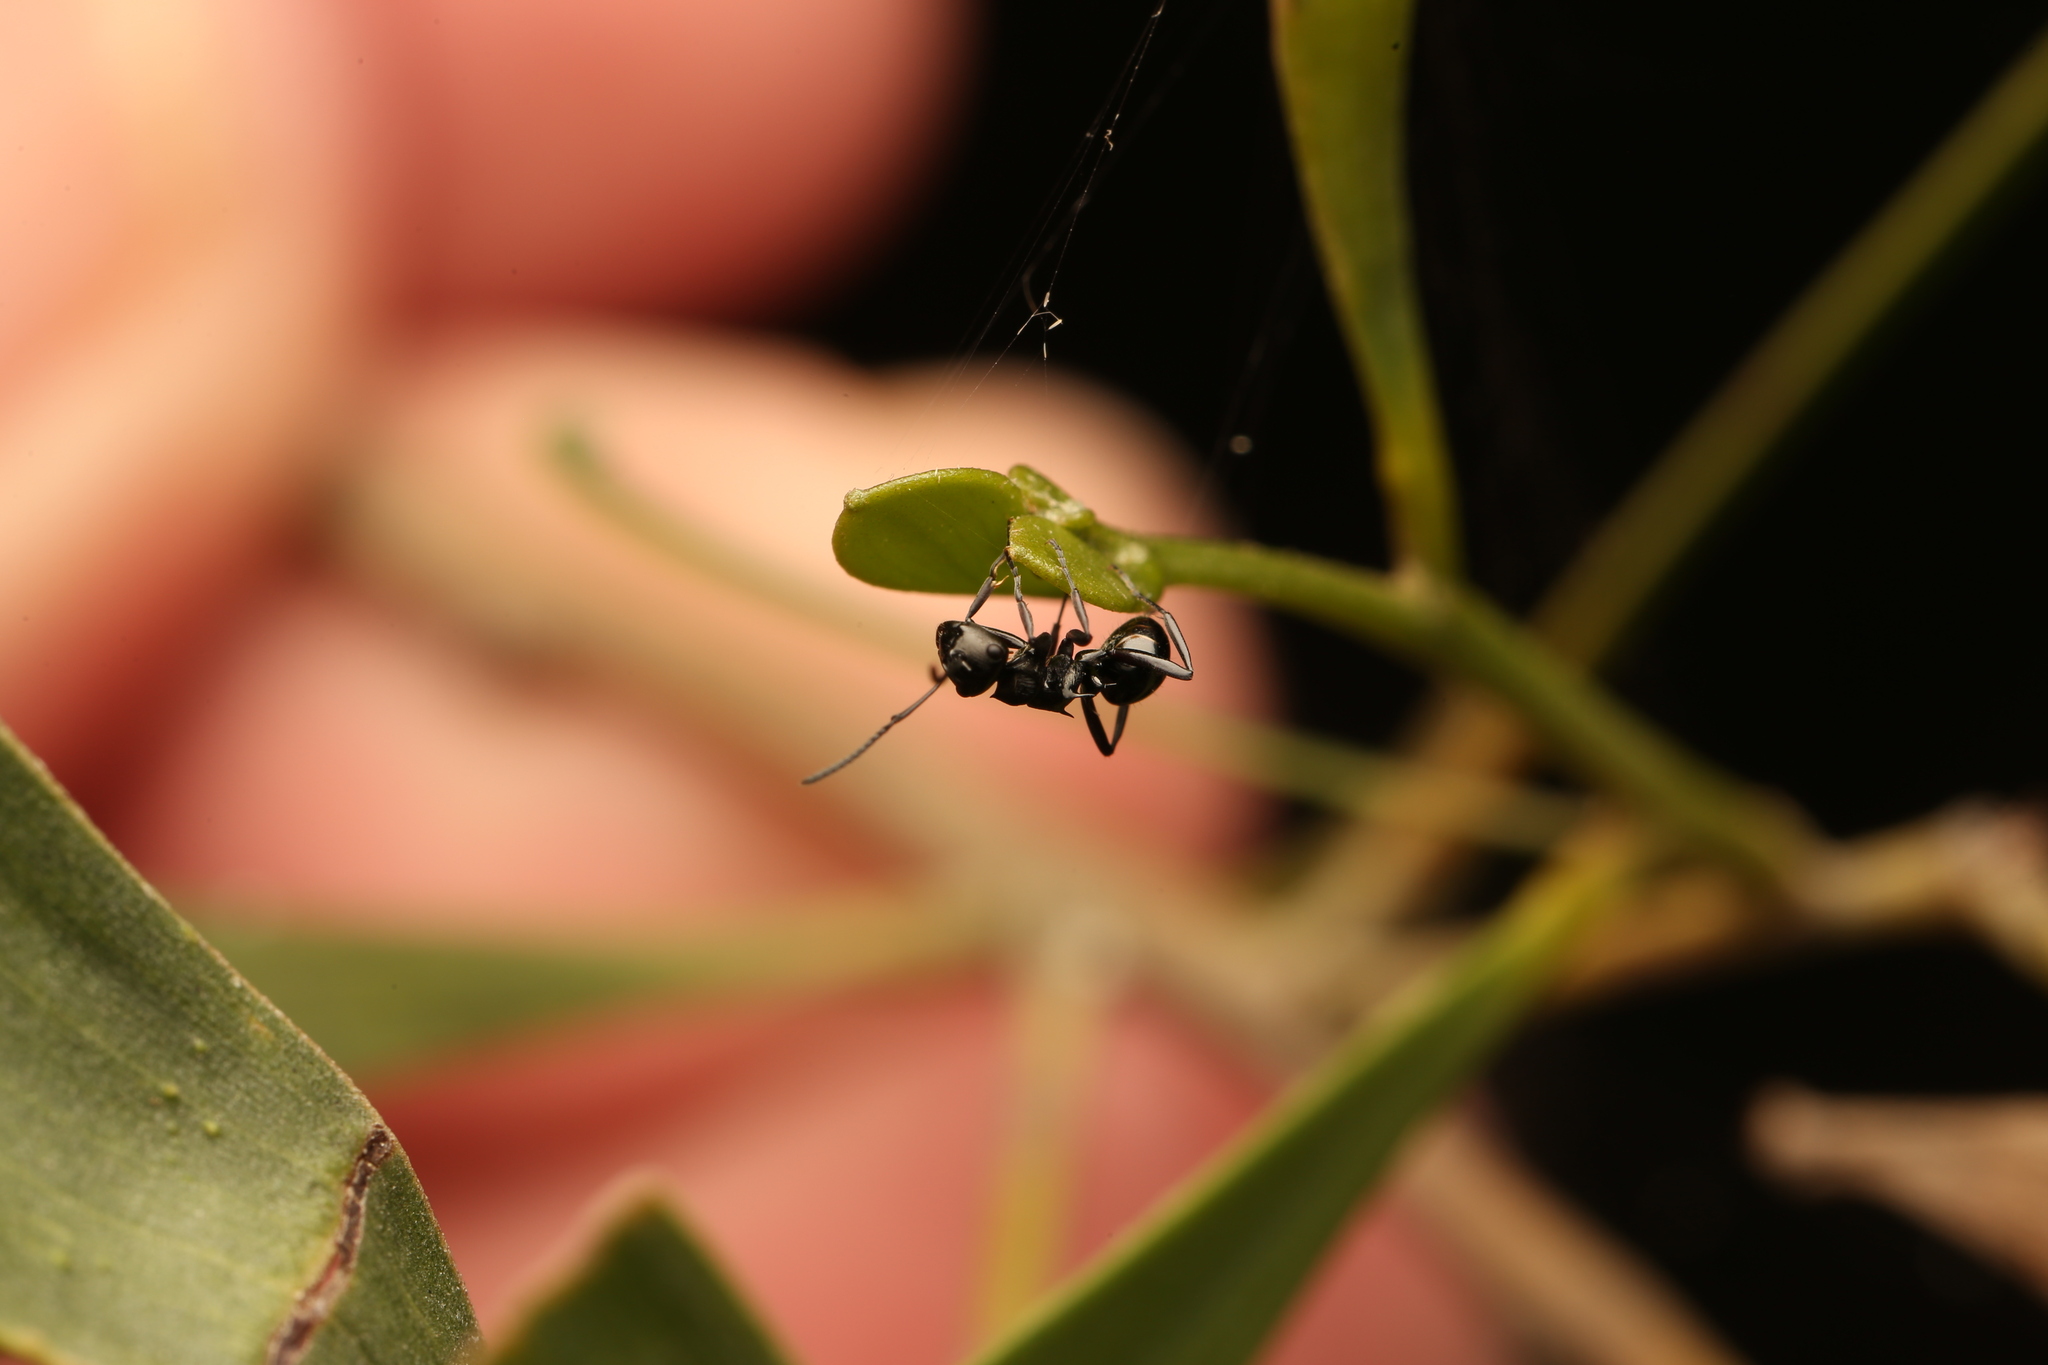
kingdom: Animalia
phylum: Arthropoda
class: Insecta
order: Hymenoptera
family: Formicidae
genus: Polyrhachis
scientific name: Polyrhachis clio
